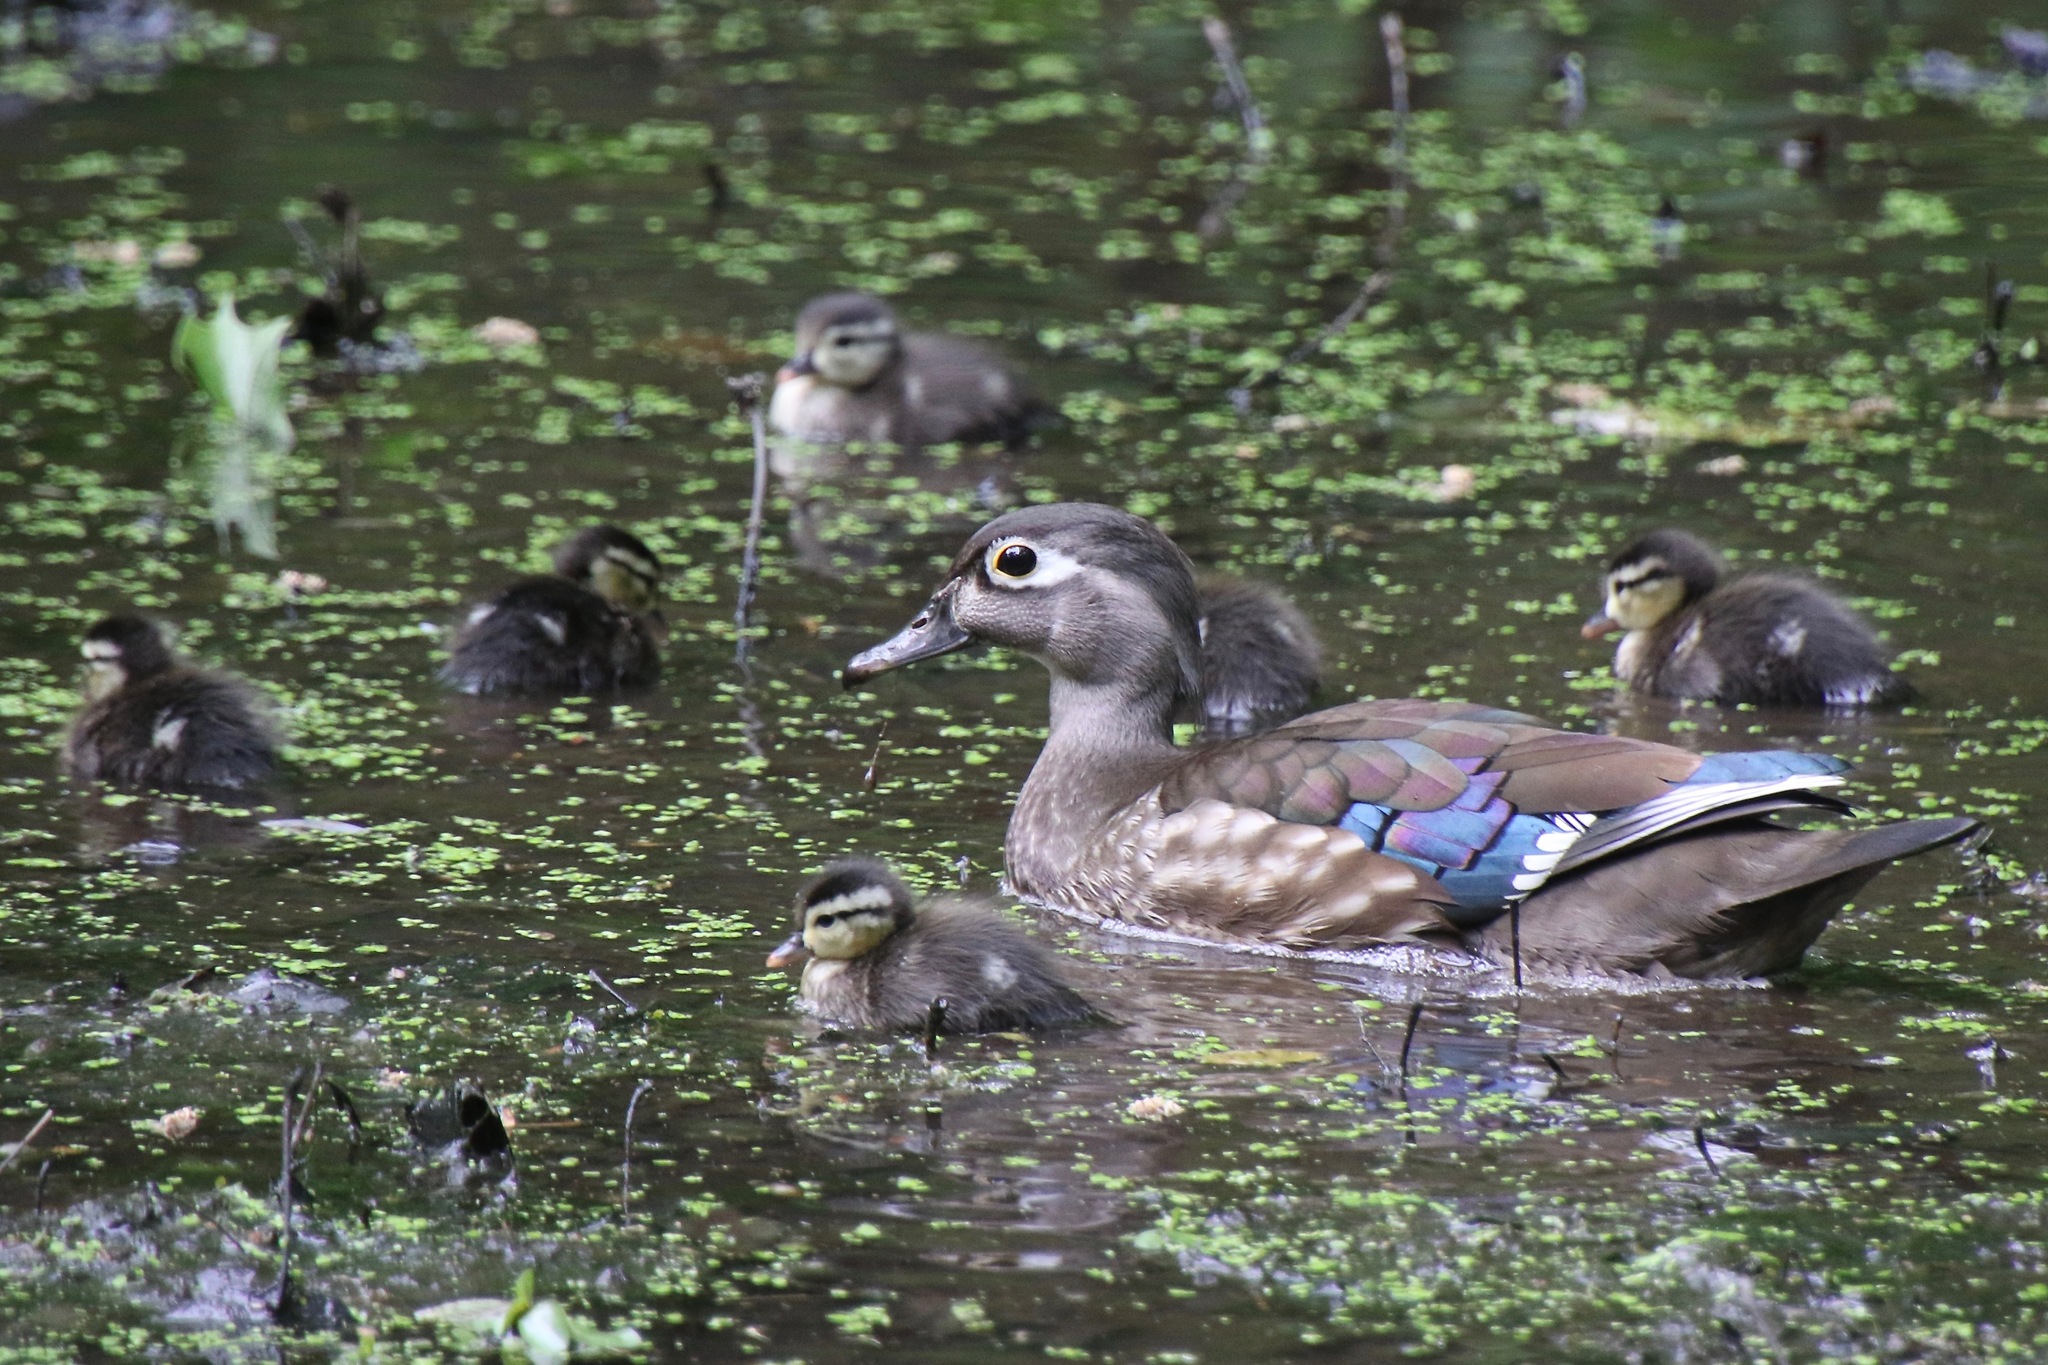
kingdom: Animalia
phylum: Chordata
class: Aves
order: Anseriformes
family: Anatidae
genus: Aix
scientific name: Aix sponsa
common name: Wood duck
